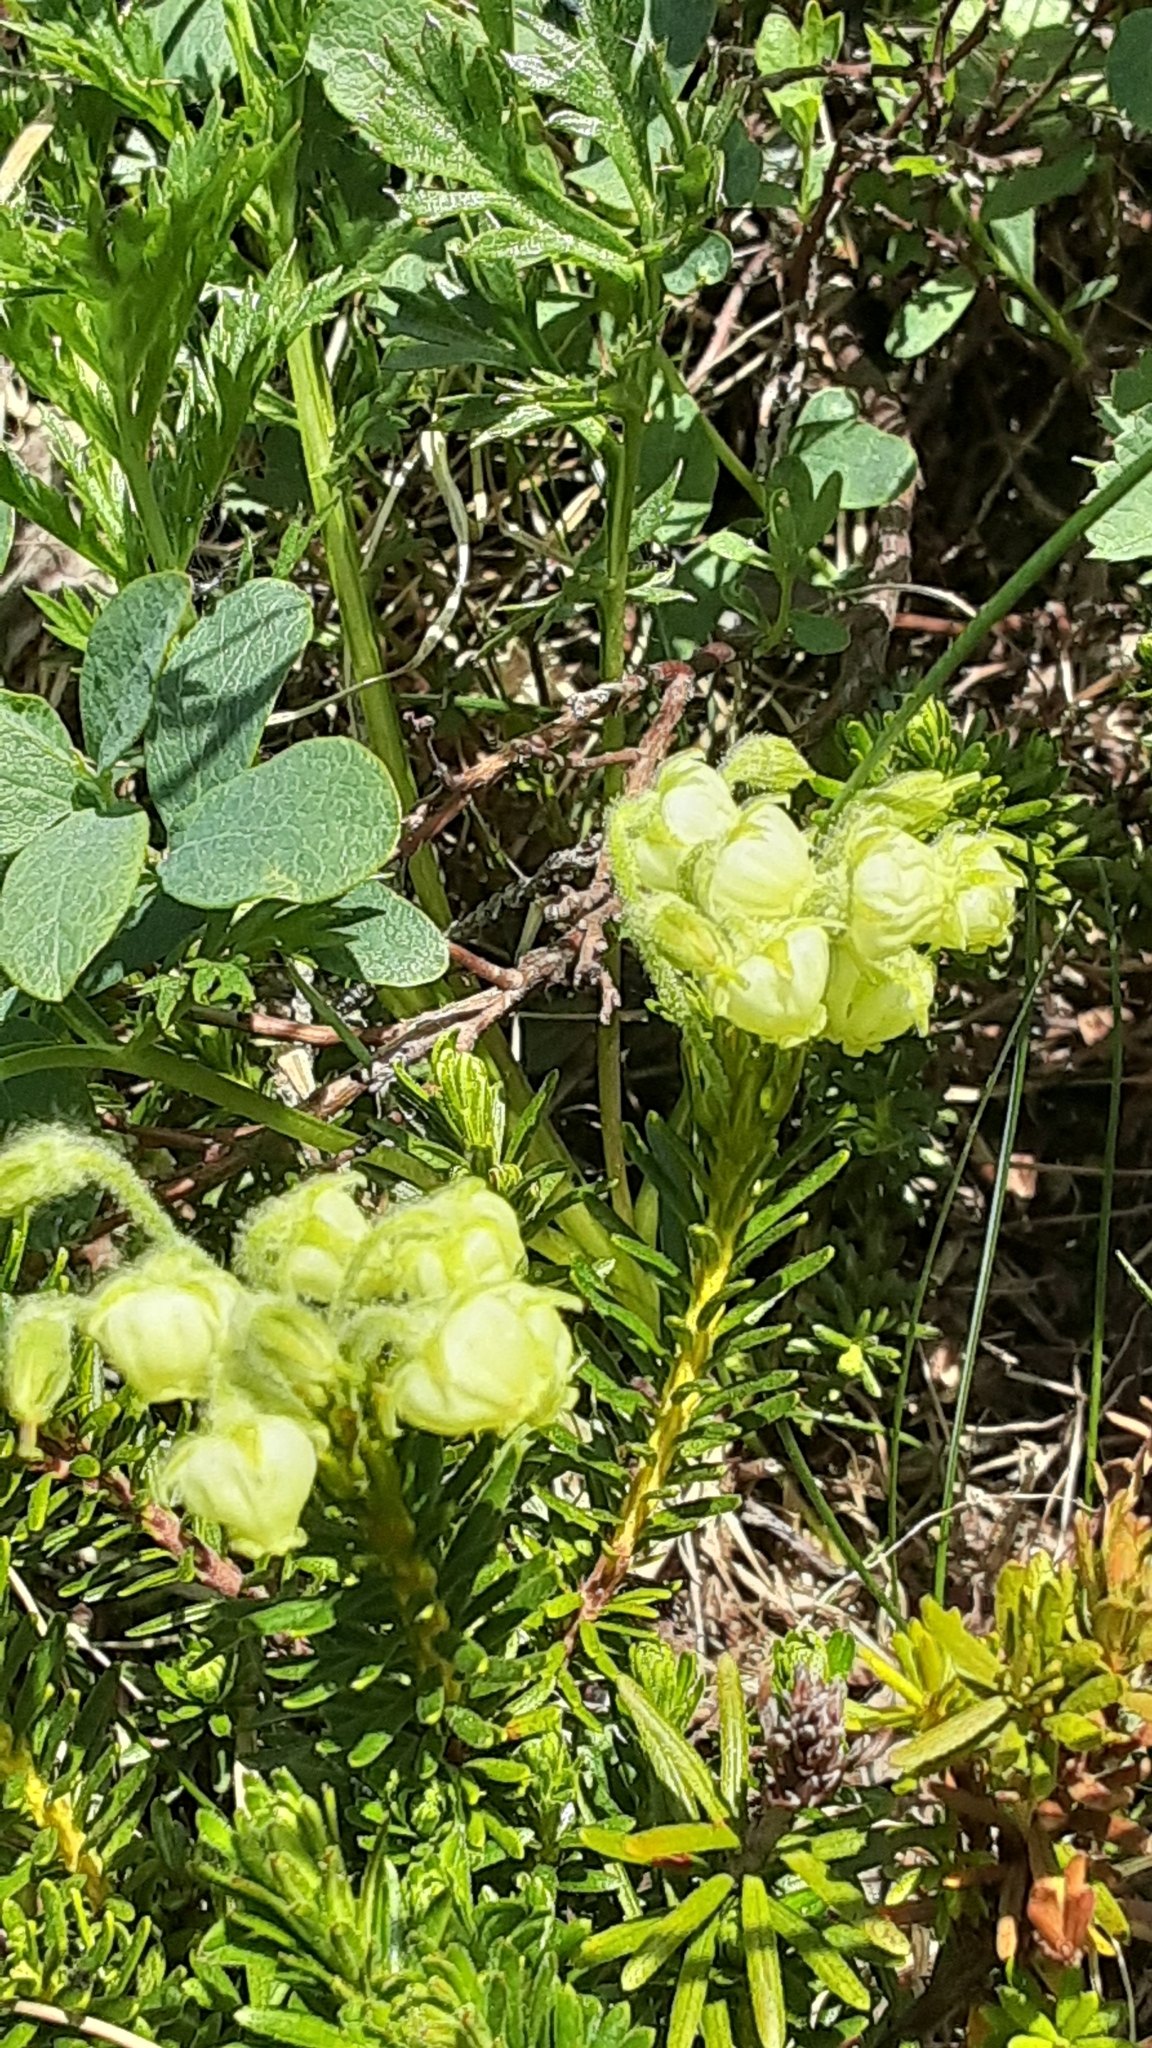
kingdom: Plantae
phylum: Tracheophyta
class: Magnoliopsida
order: Ericales
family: Ericaceae
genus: Phyllodoce
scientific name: Phyllodoce glanduliflora
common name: Cream mountain heather
